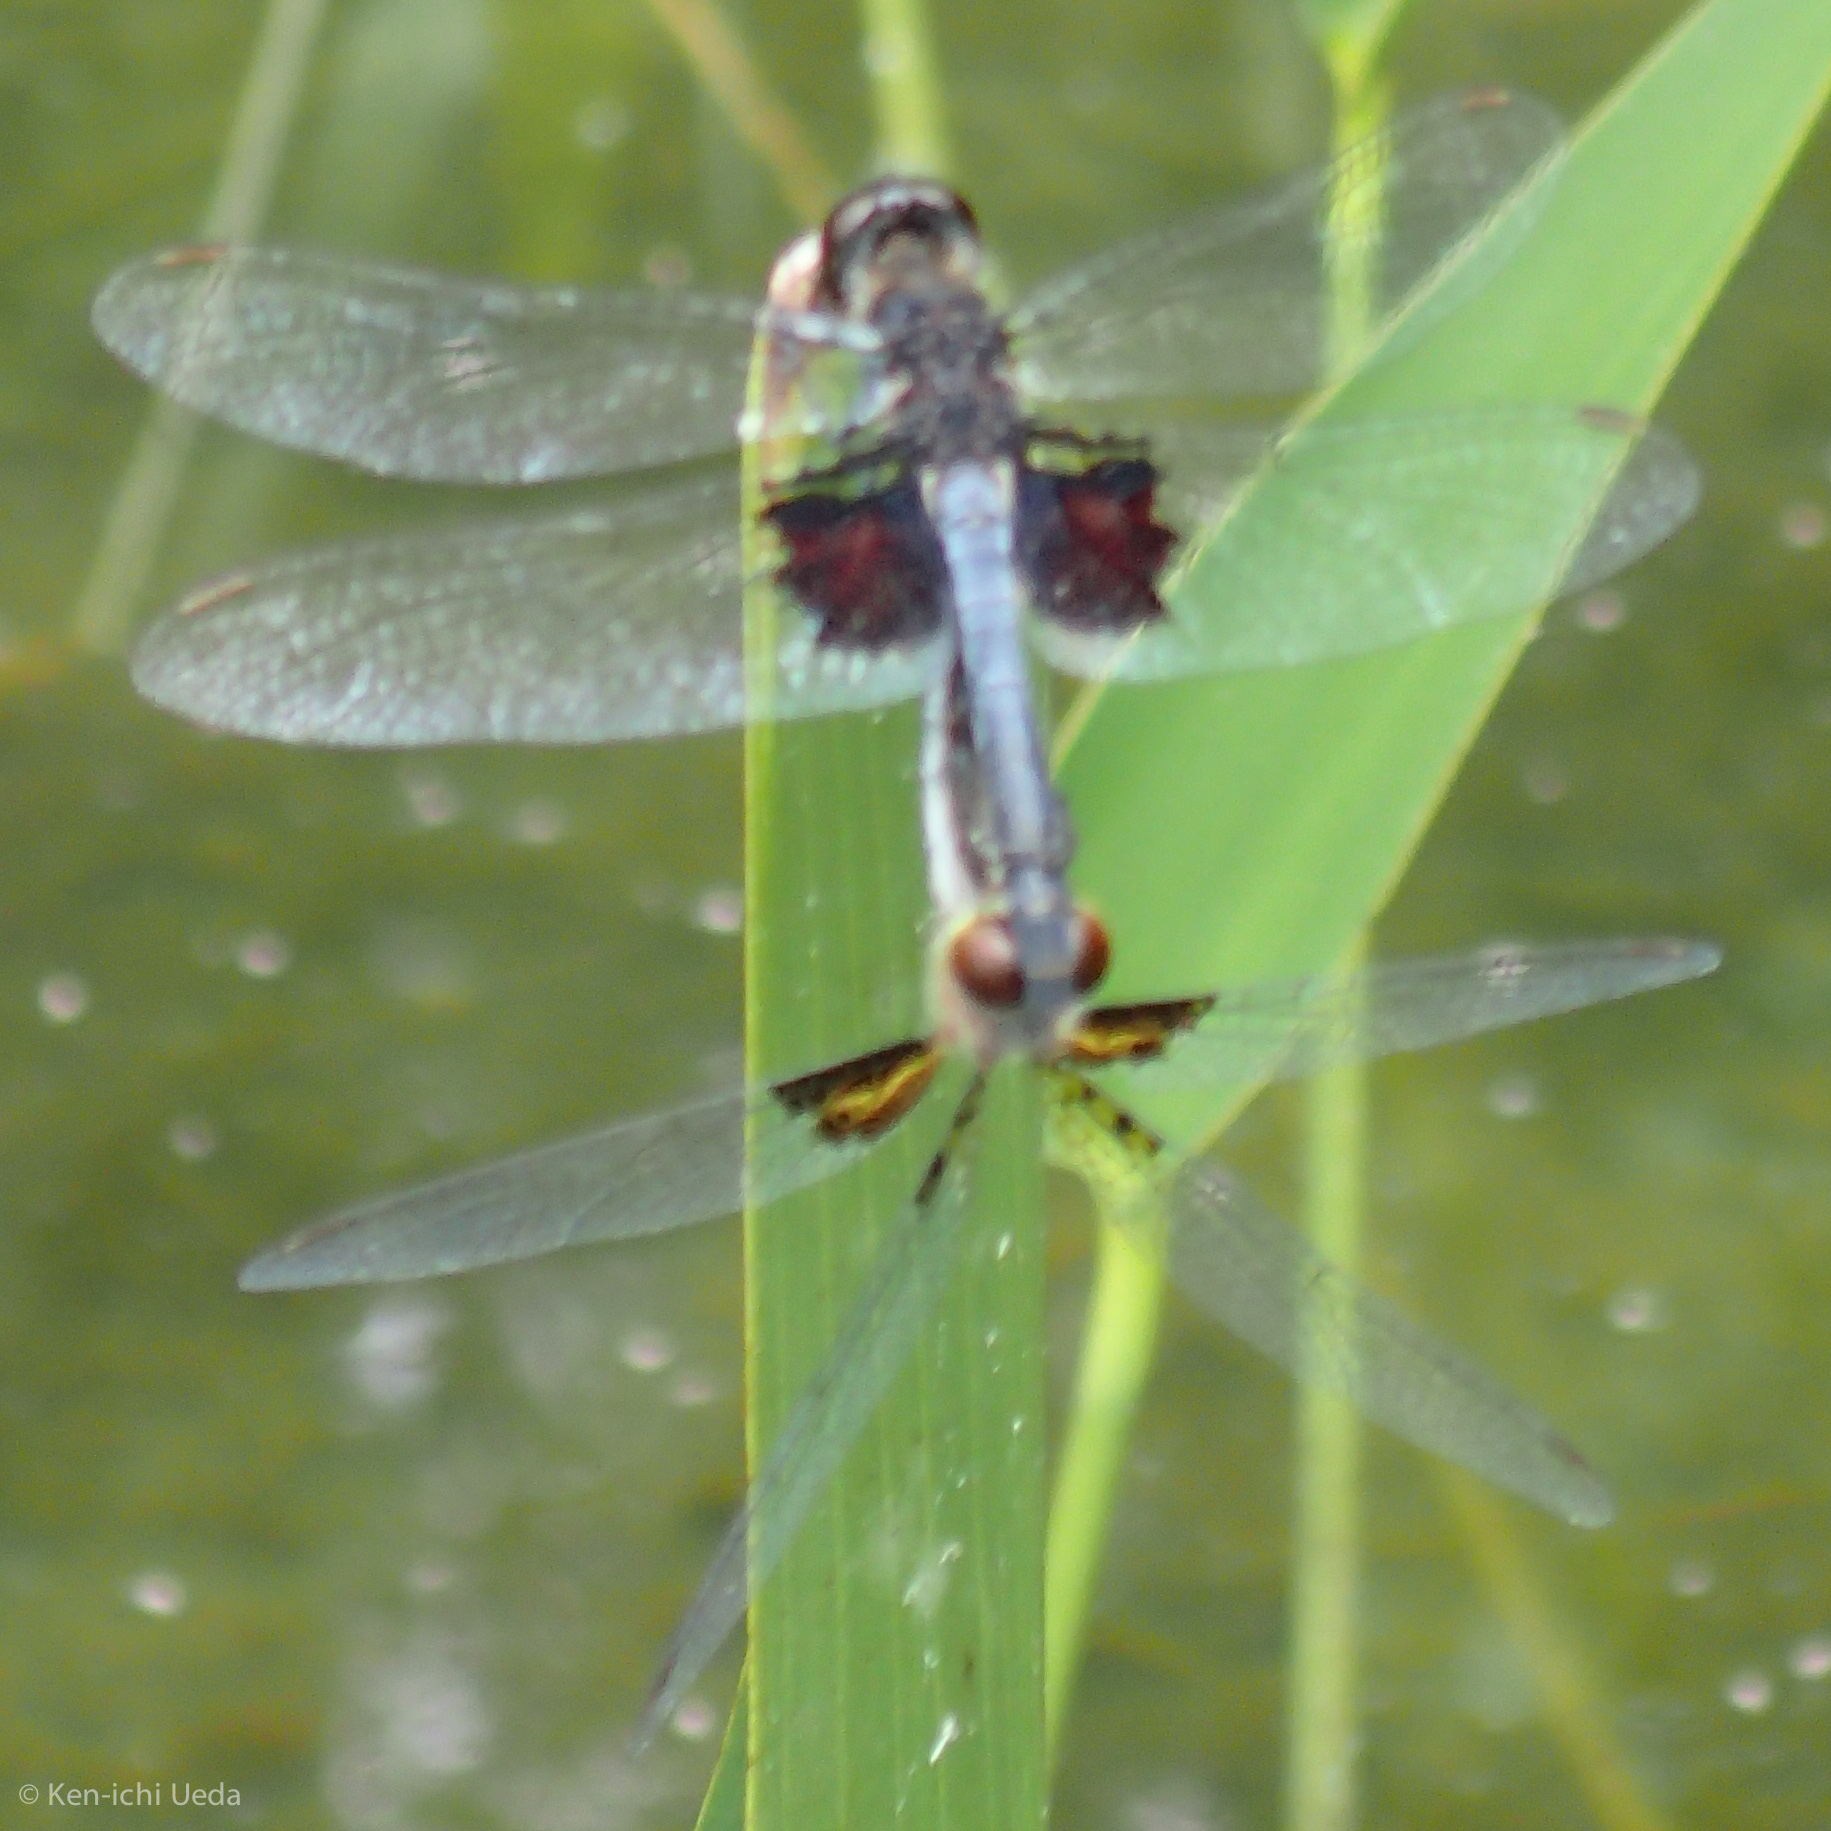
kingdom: Animalia
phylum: Arthropoda
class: Insecta
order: Odonata
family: Libellulidae
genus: Celithemis
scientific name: Celithemis martha
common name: Martha's pennant
